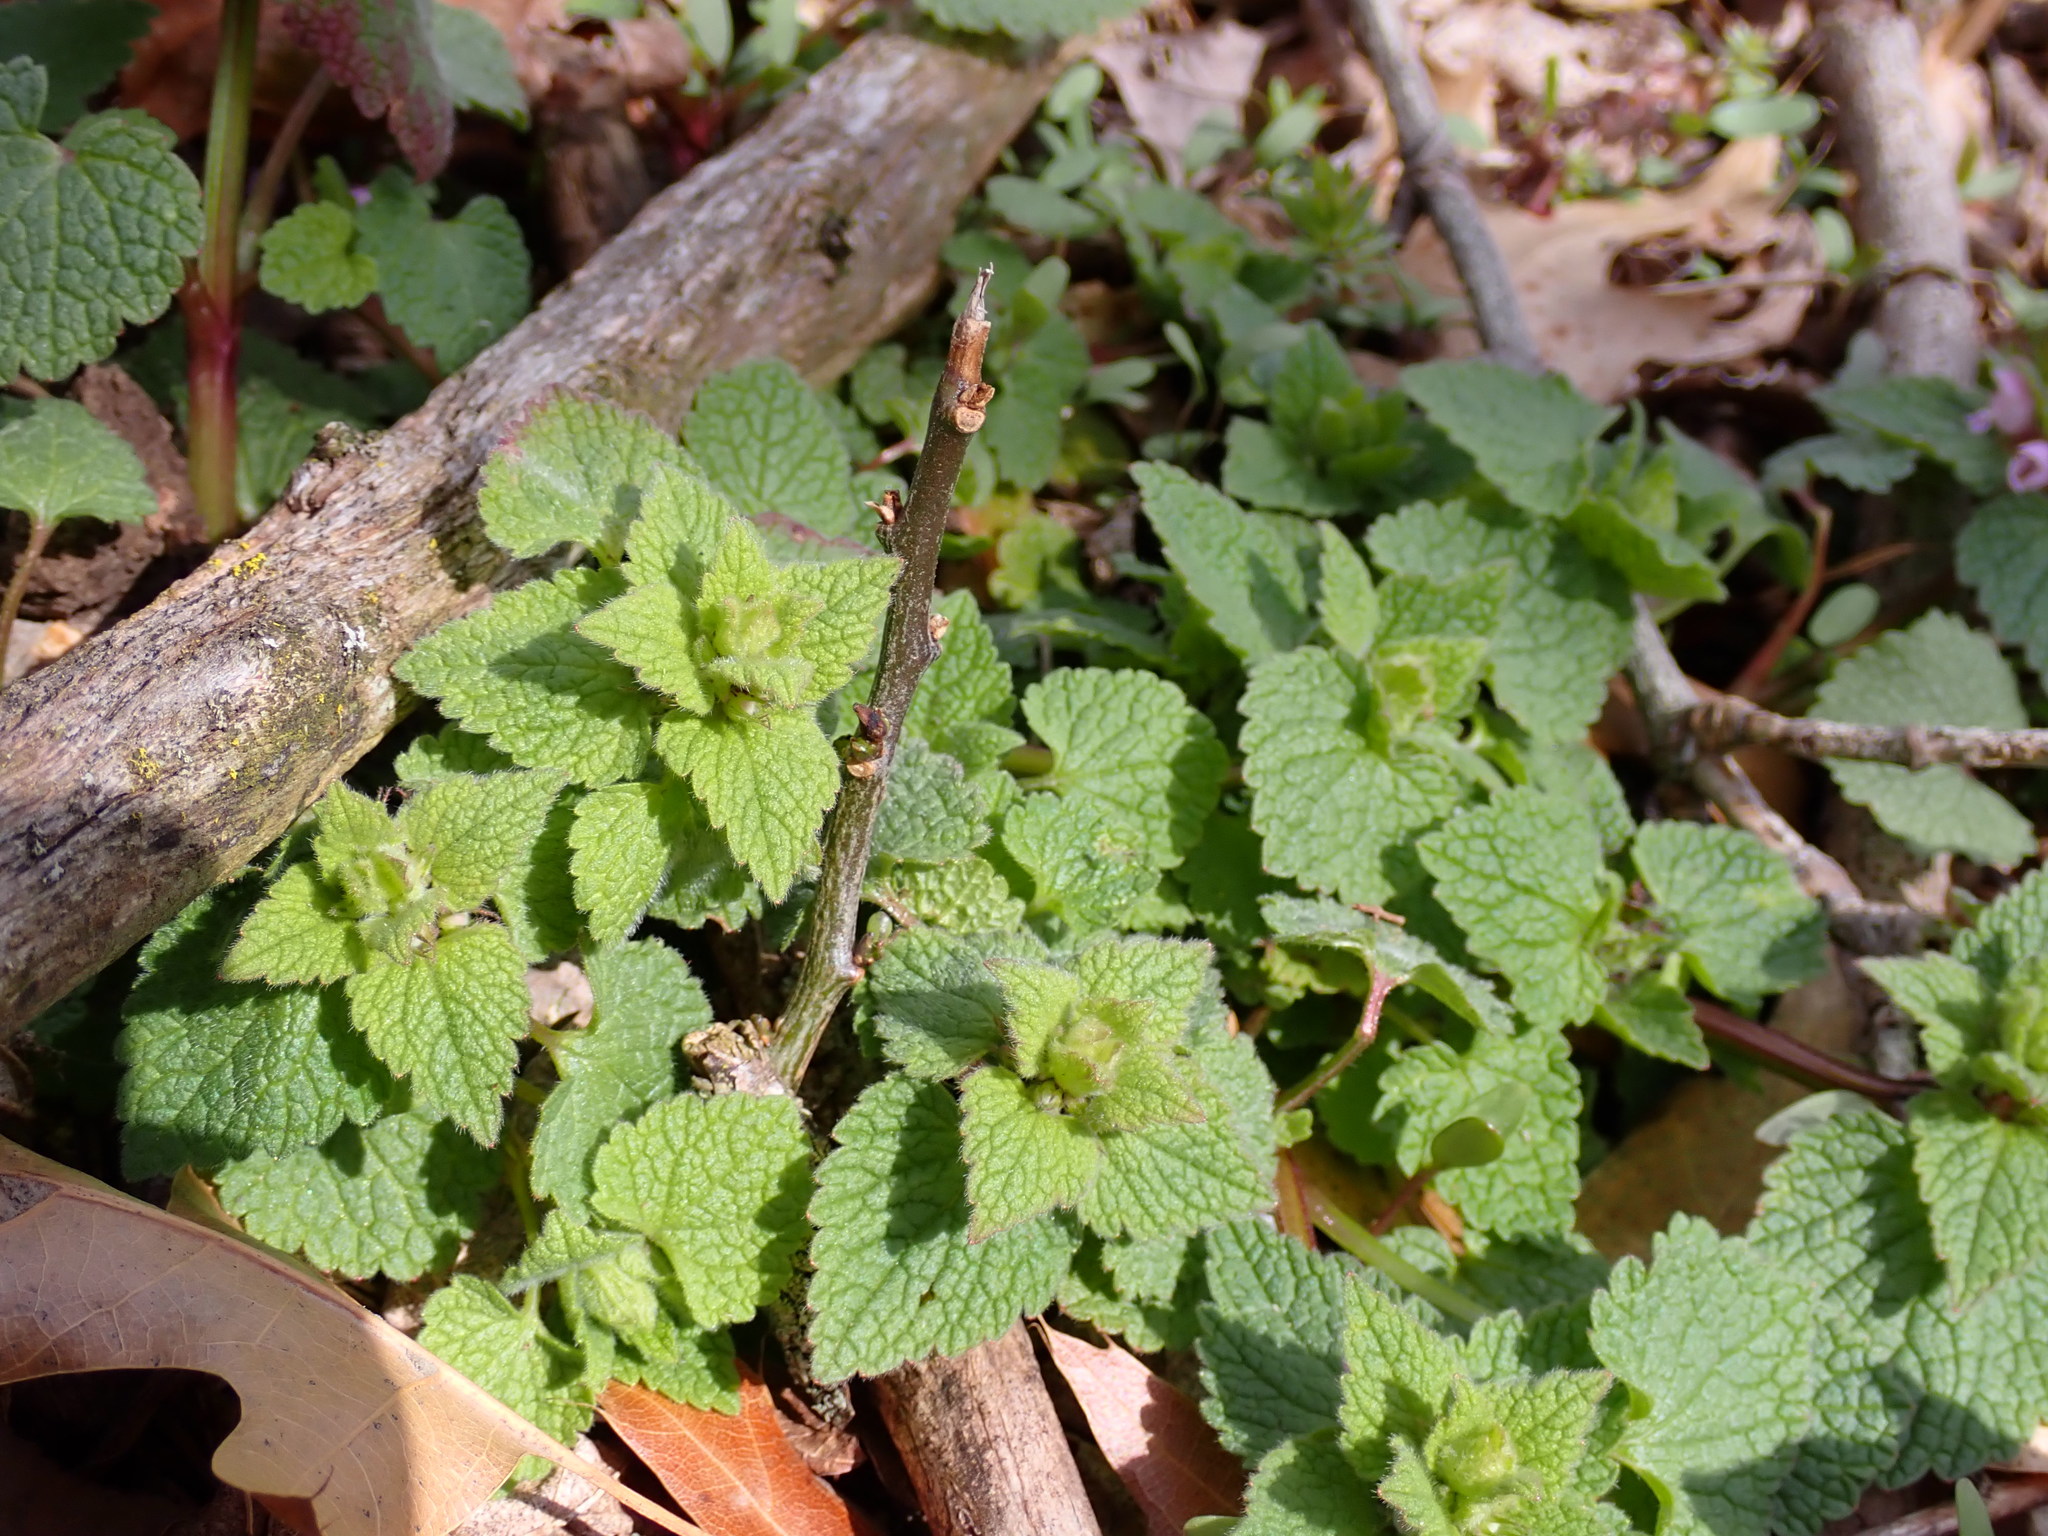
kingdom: Plantae
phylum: Tracheophyta
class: Magnoliopsida
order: Lamiales
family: Lamiaceae
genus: Lamium
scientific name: Lamium purpureum
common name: Red dead-nettle
